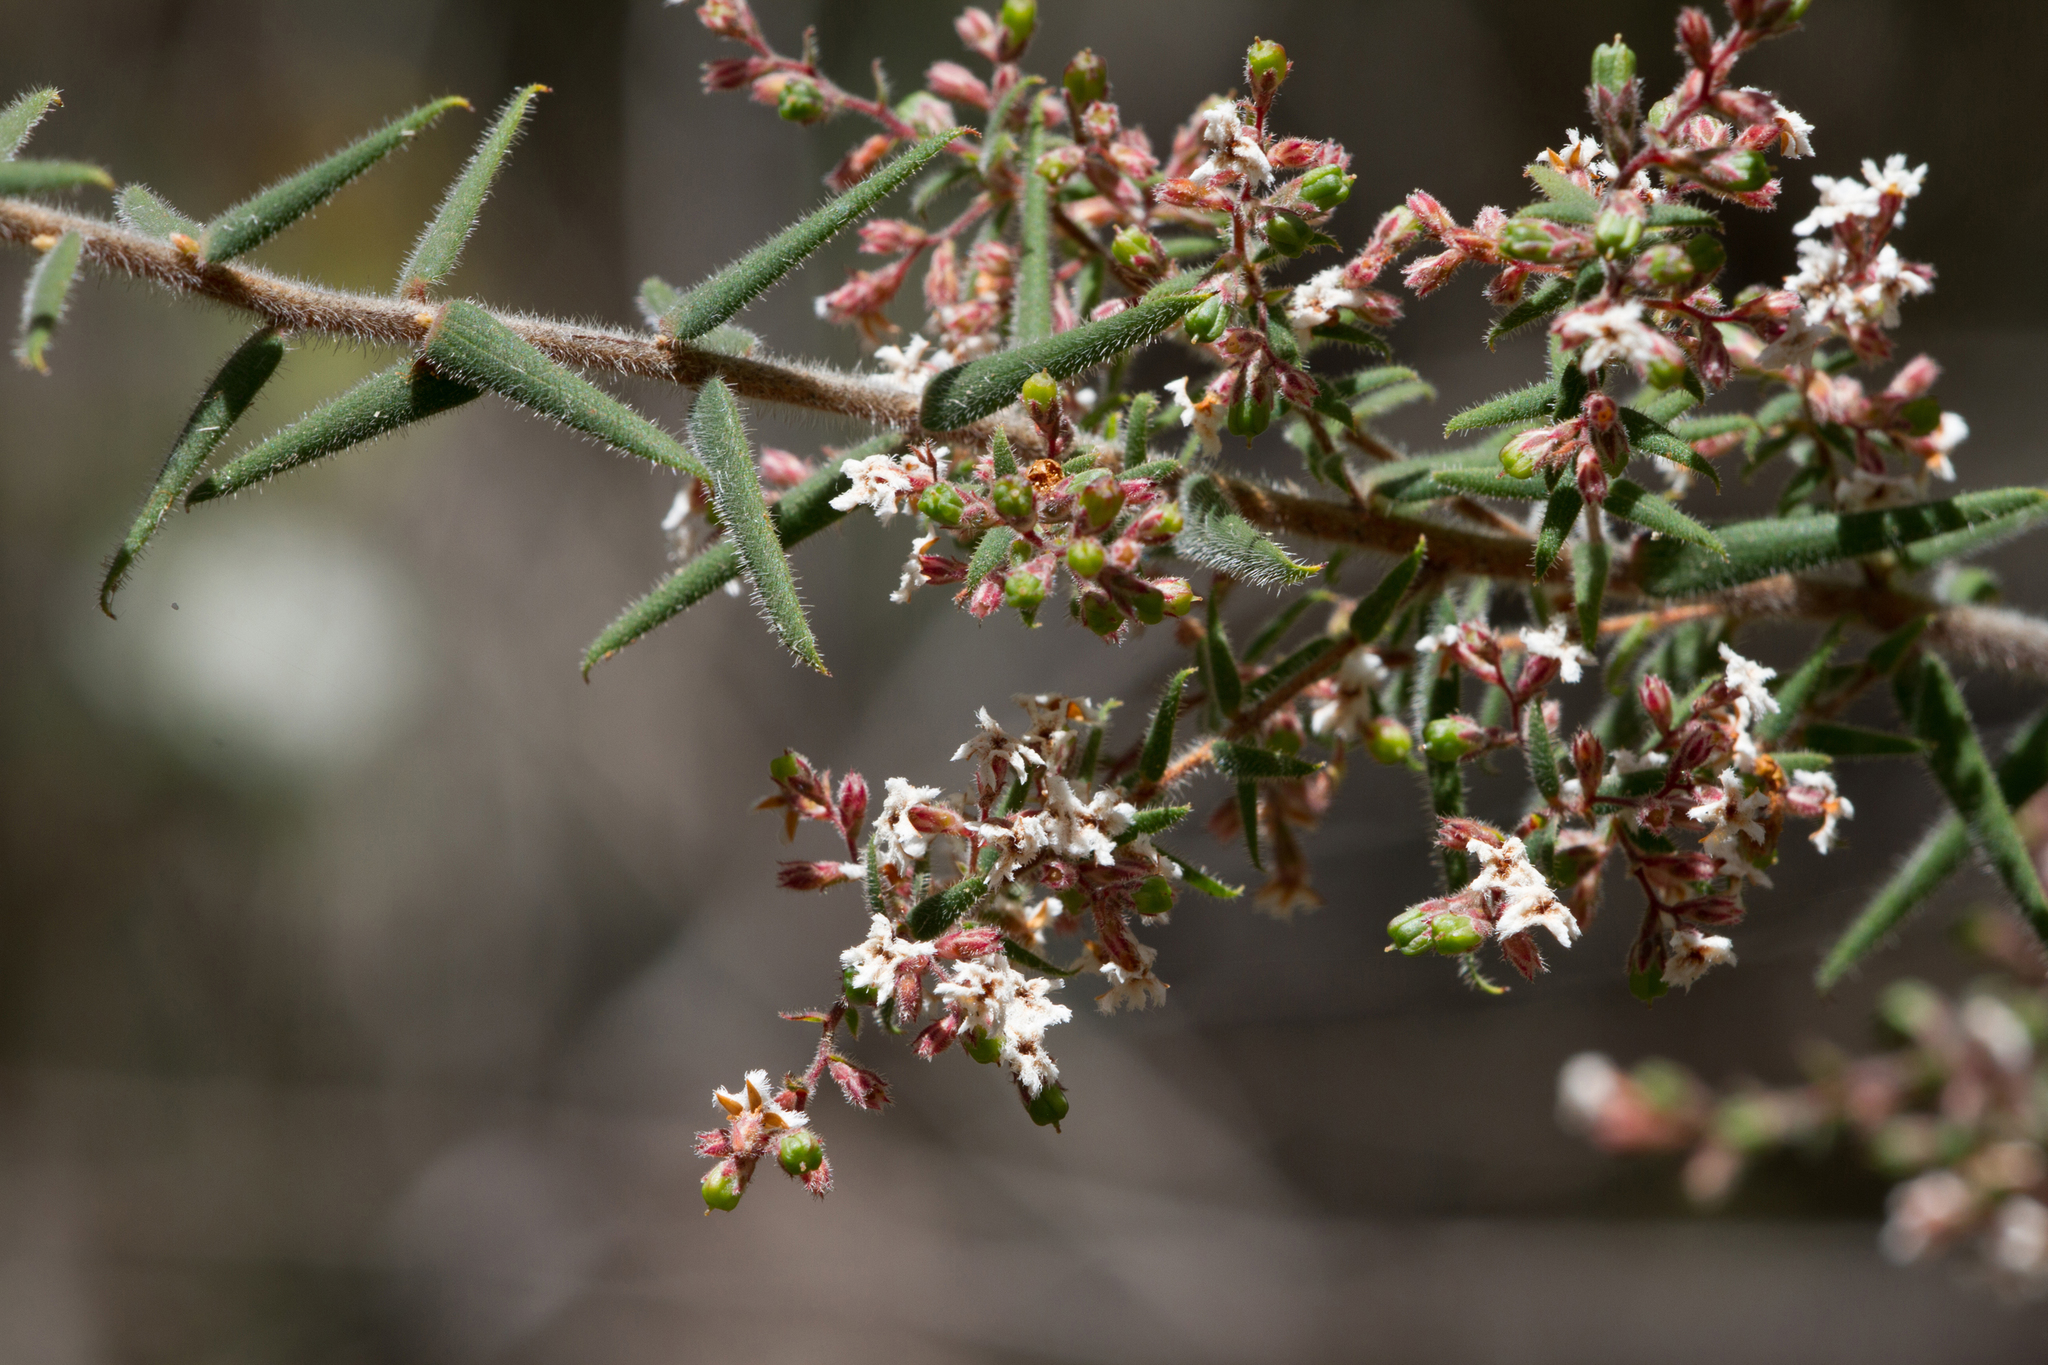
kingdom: Plantae
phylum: Tracheophyta
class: Magnoliopsida
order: Ericales
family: Ericaceae
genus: Leucopogon
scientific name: Leucopogon thymifolius
